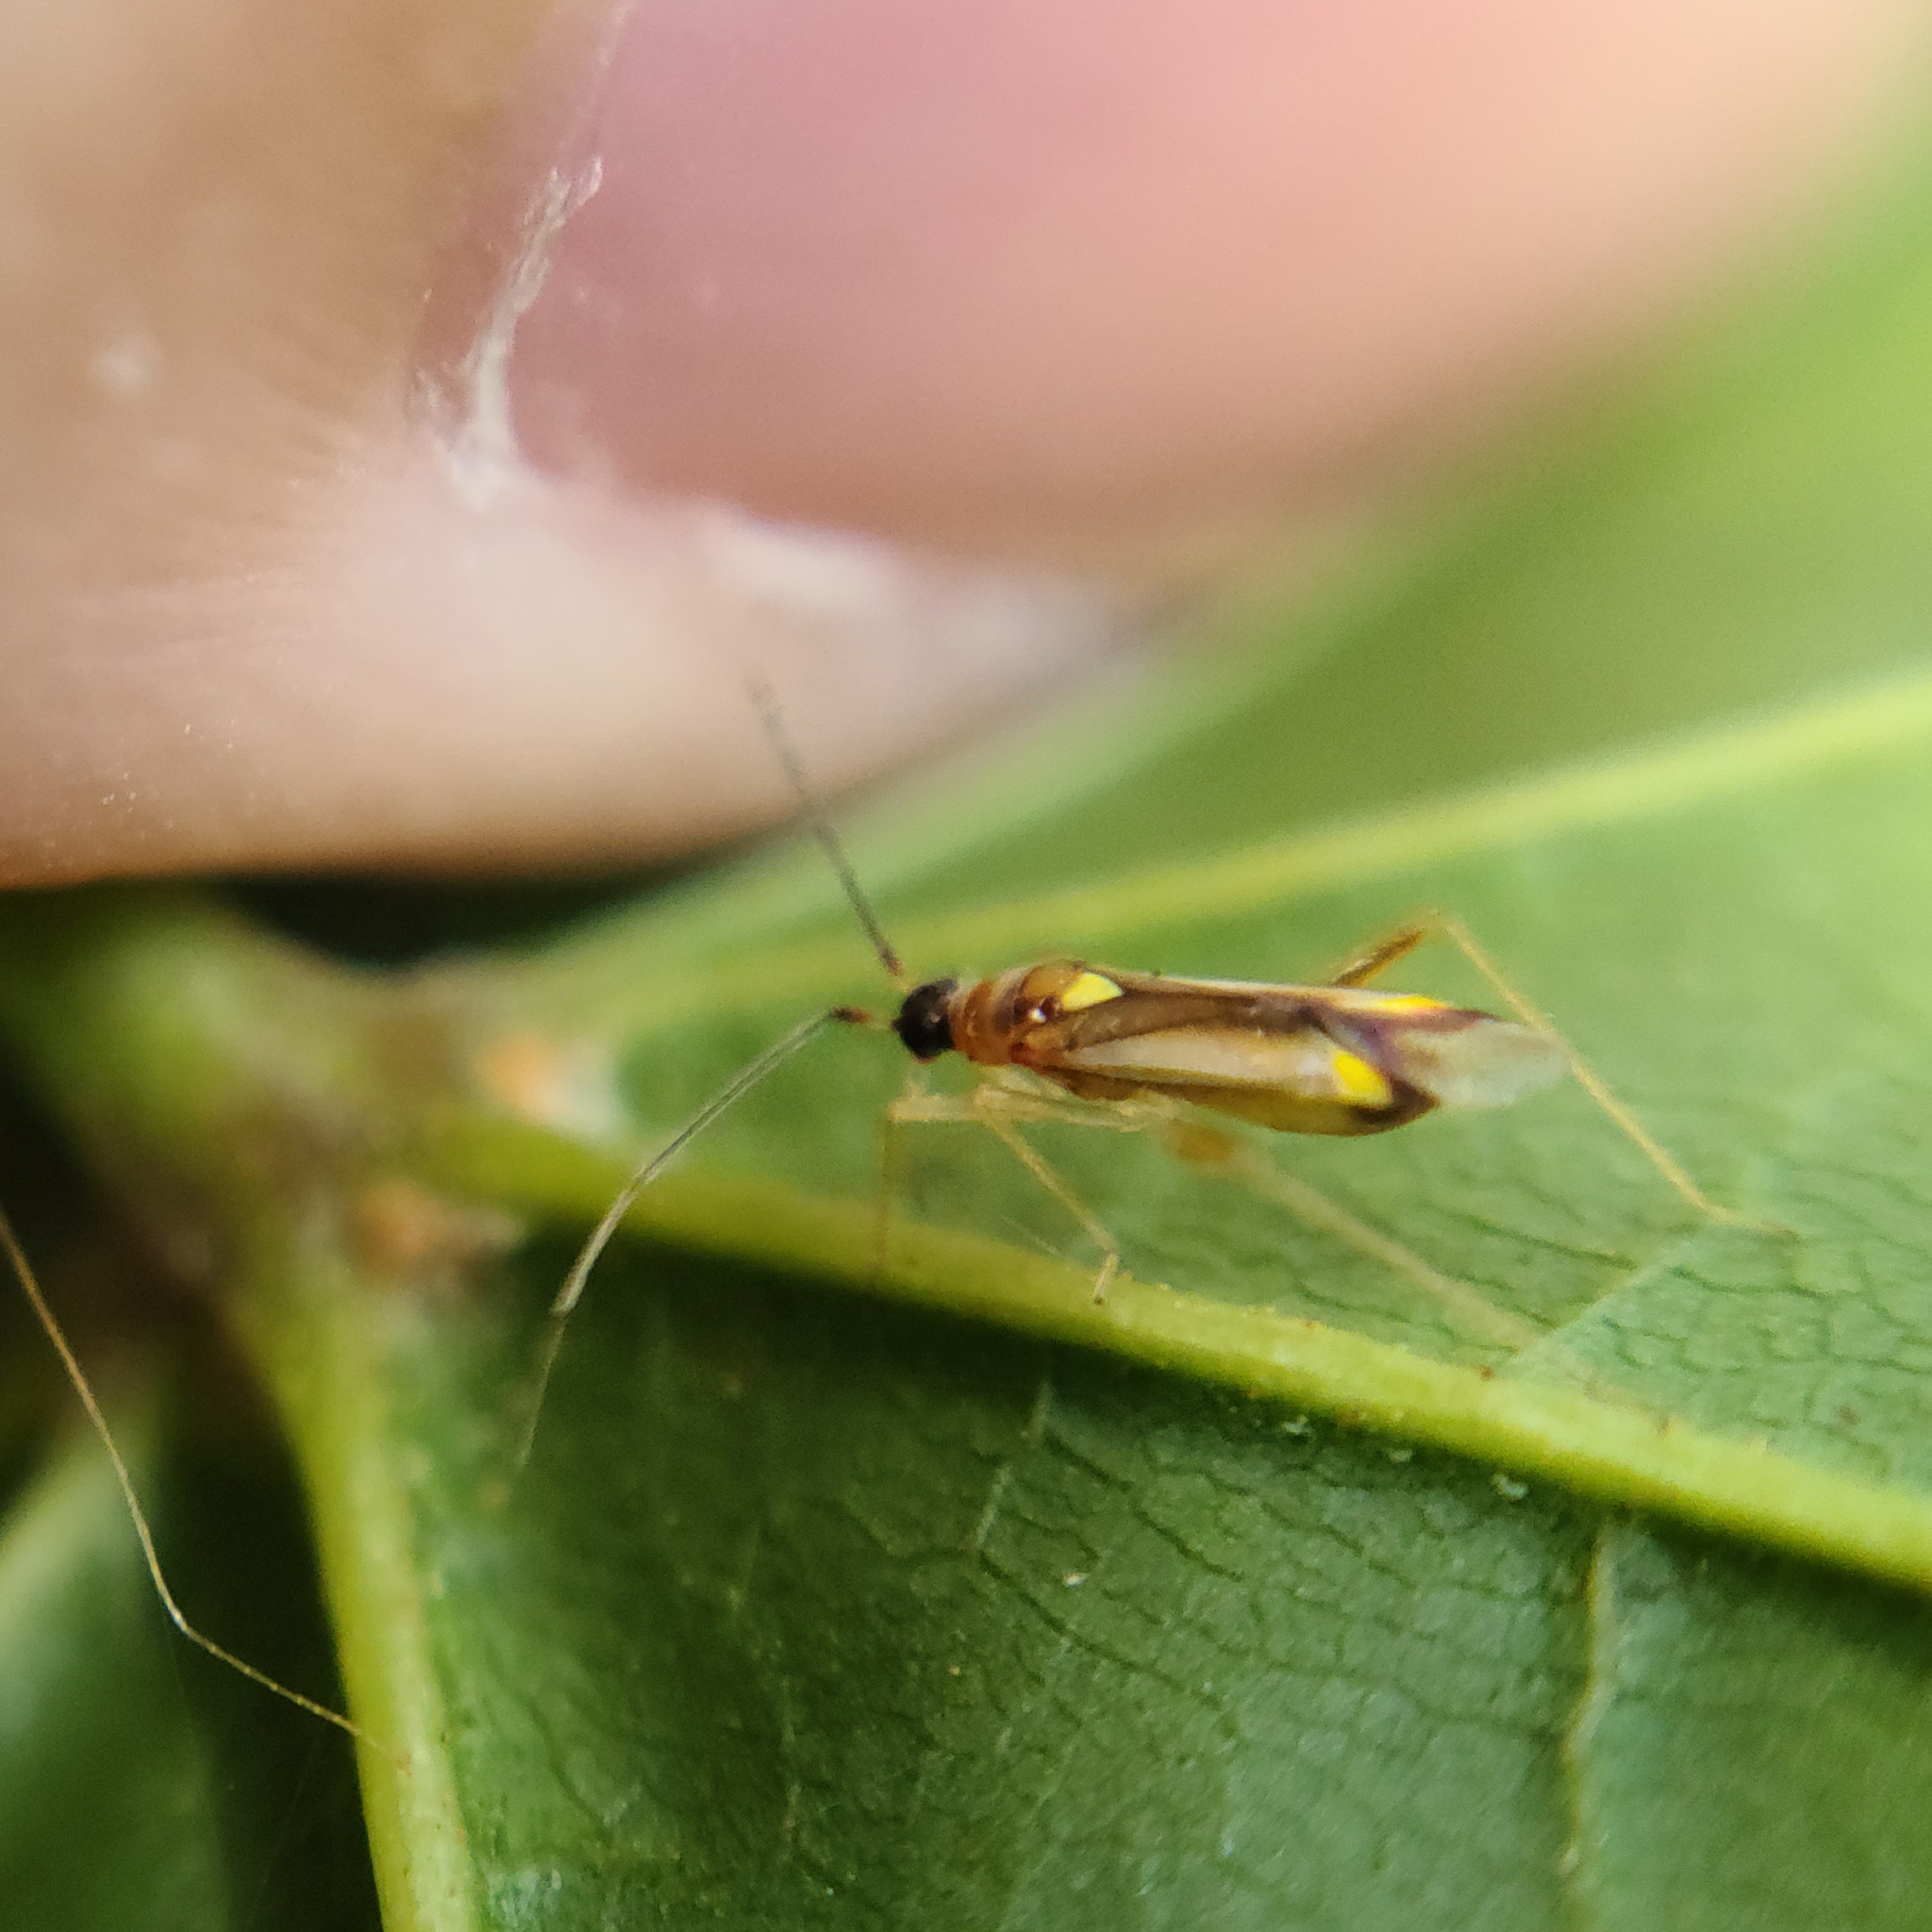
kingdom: Animalia
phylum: Arthropoda
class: Insecta
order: Hemiptera
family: Miridae
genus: Campyloneura
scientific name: Campyloneura virgula
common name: Predatory bug
